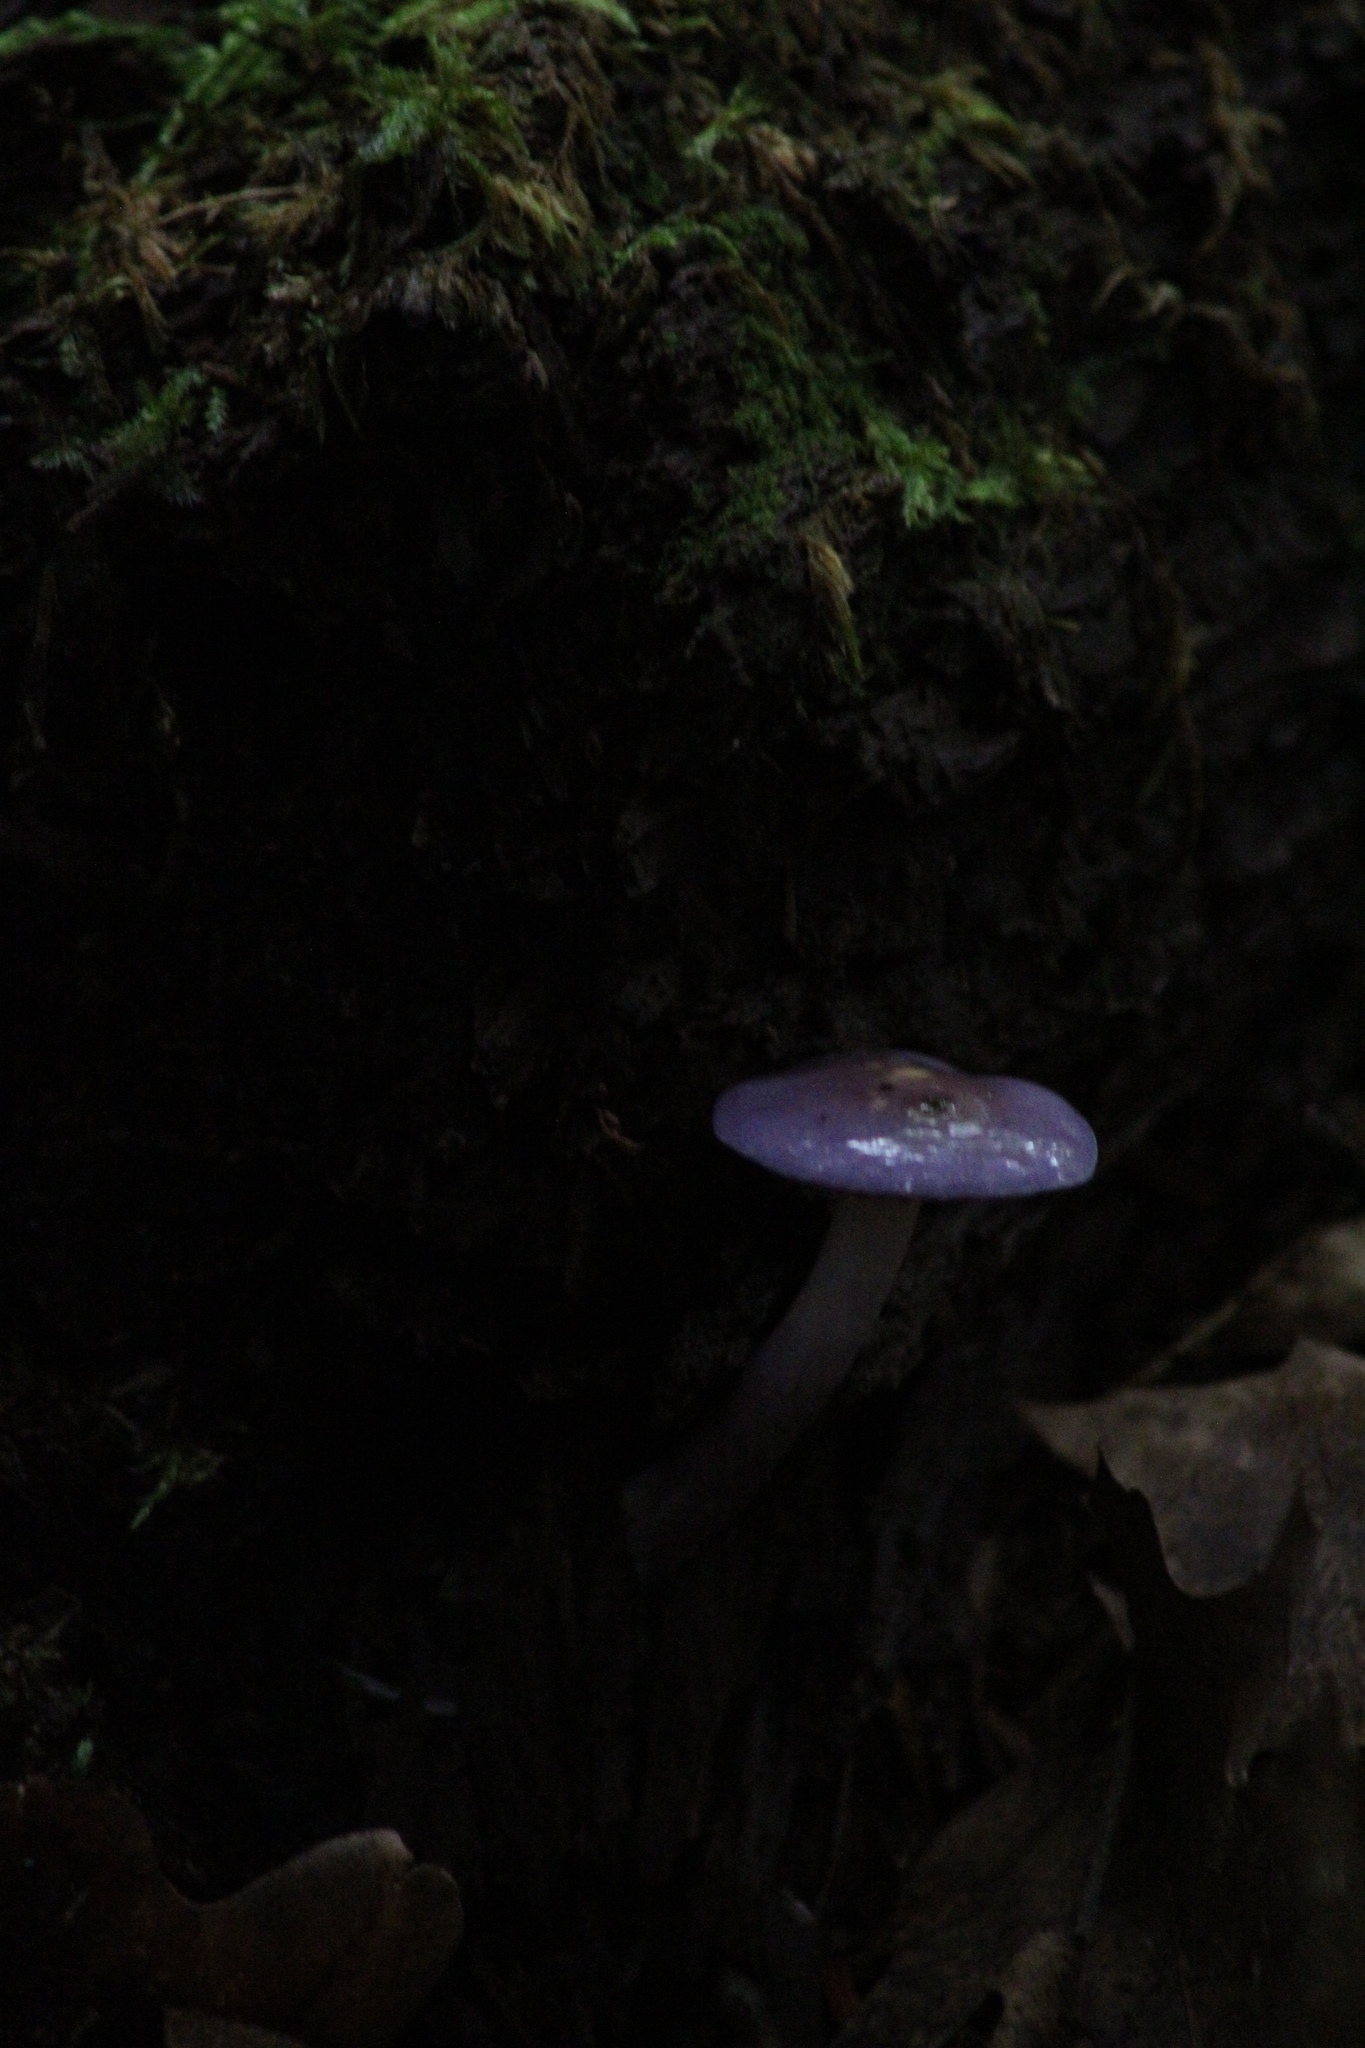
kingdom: Fungi
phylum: Basidiomycota
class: Agaricomycetes
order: Agaricales
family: Cortinariaceae
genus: Cortinarius
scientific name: Cortinarius iodes
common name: Viscid violet cort
